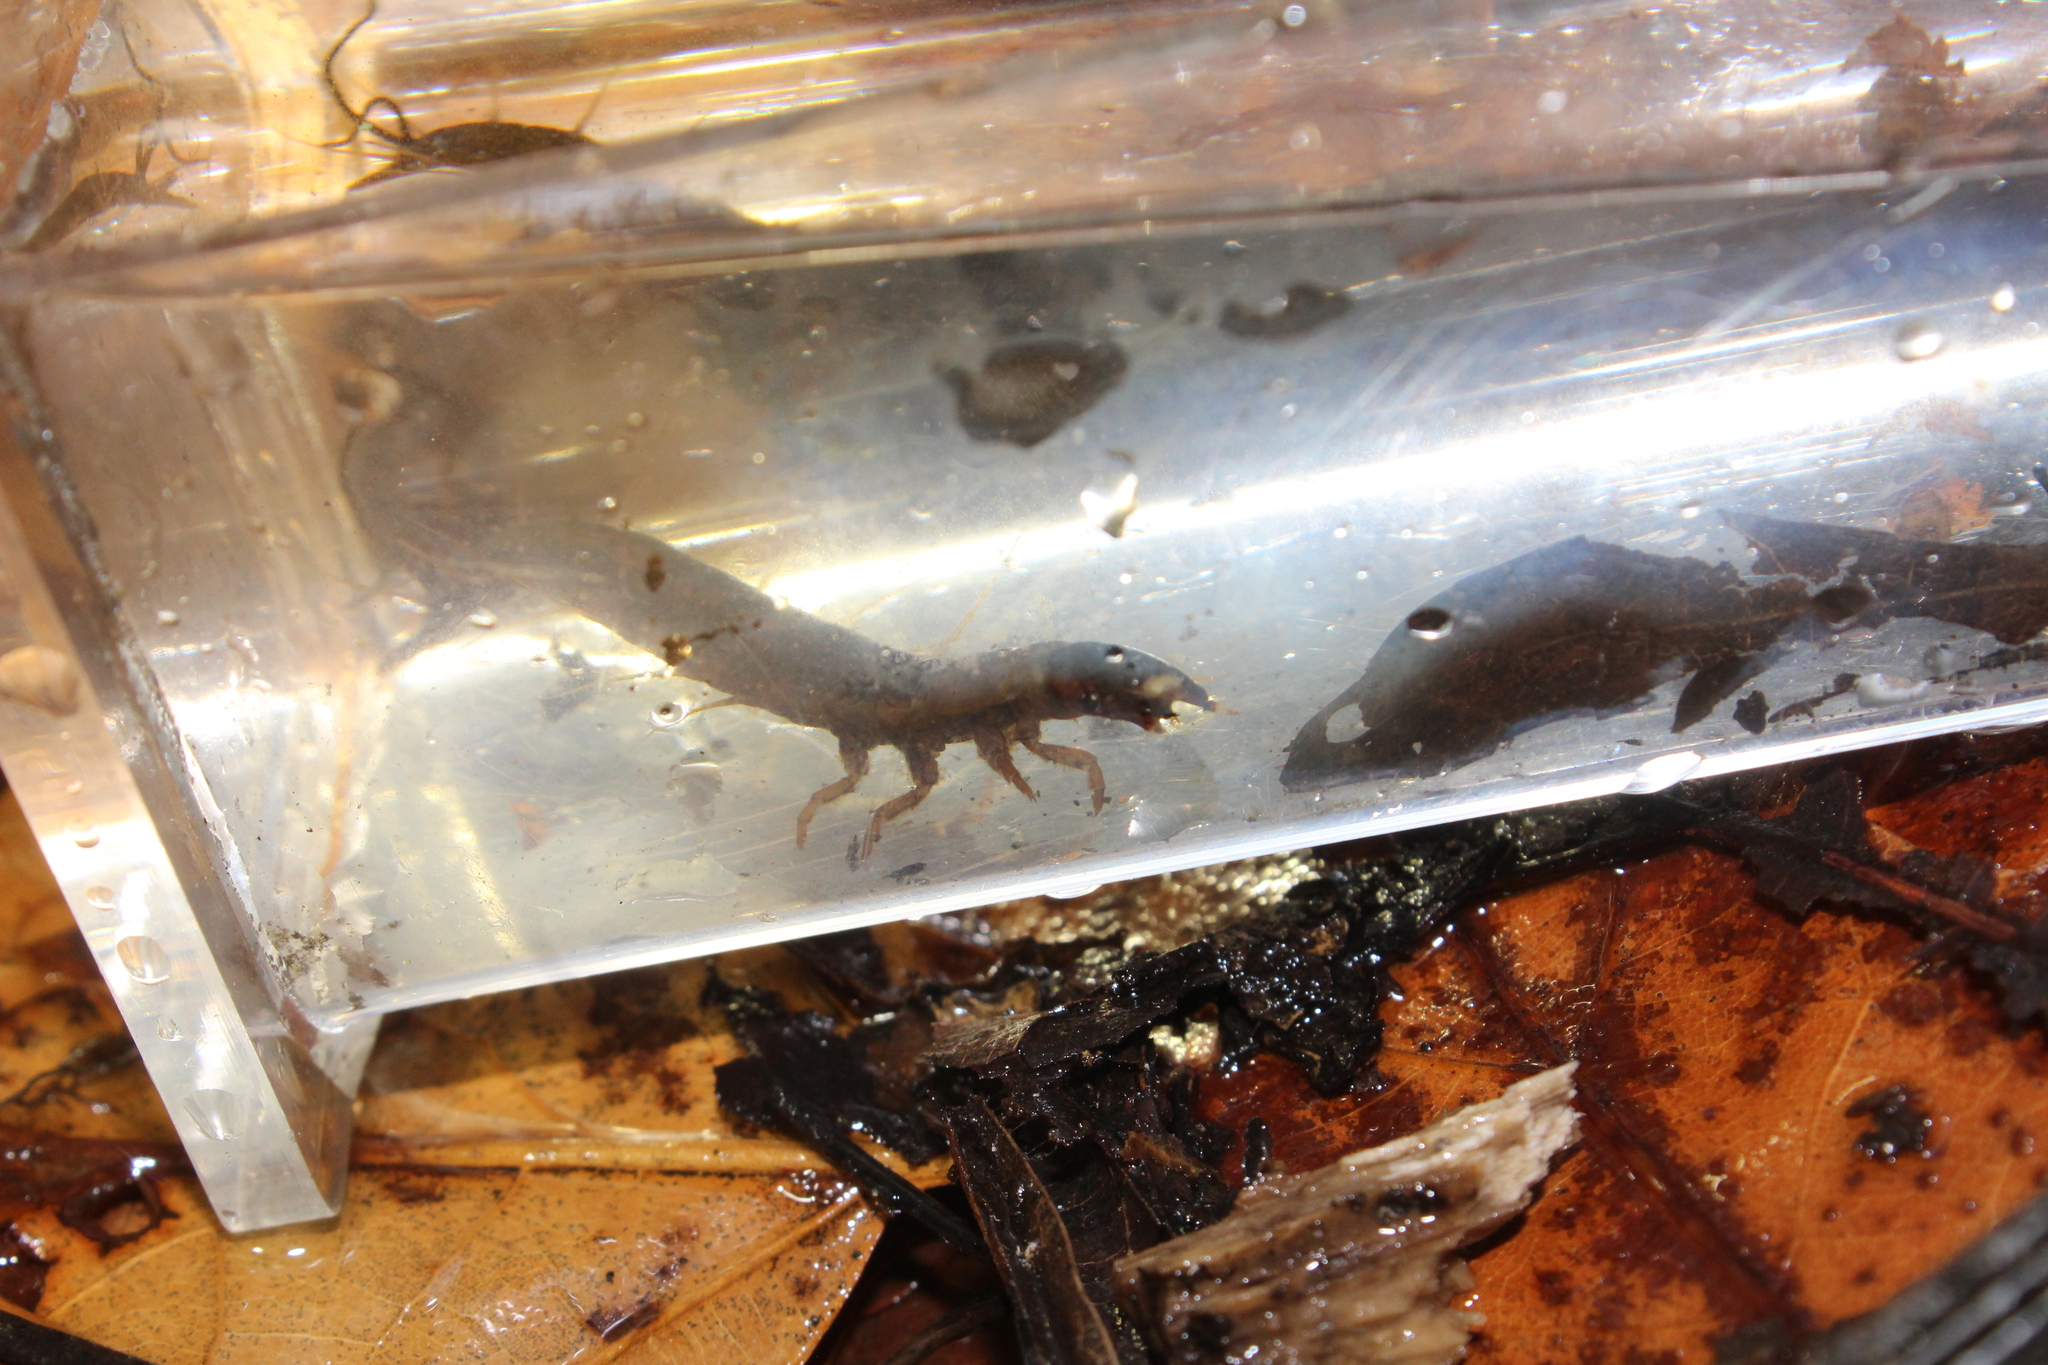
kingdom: Animalia
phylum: Arthropoda
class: Insecta
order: Megaloptera
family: Corydalidae
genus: Chauliodes
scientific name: Chauliodes rastricornis
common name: Spring fishfly
